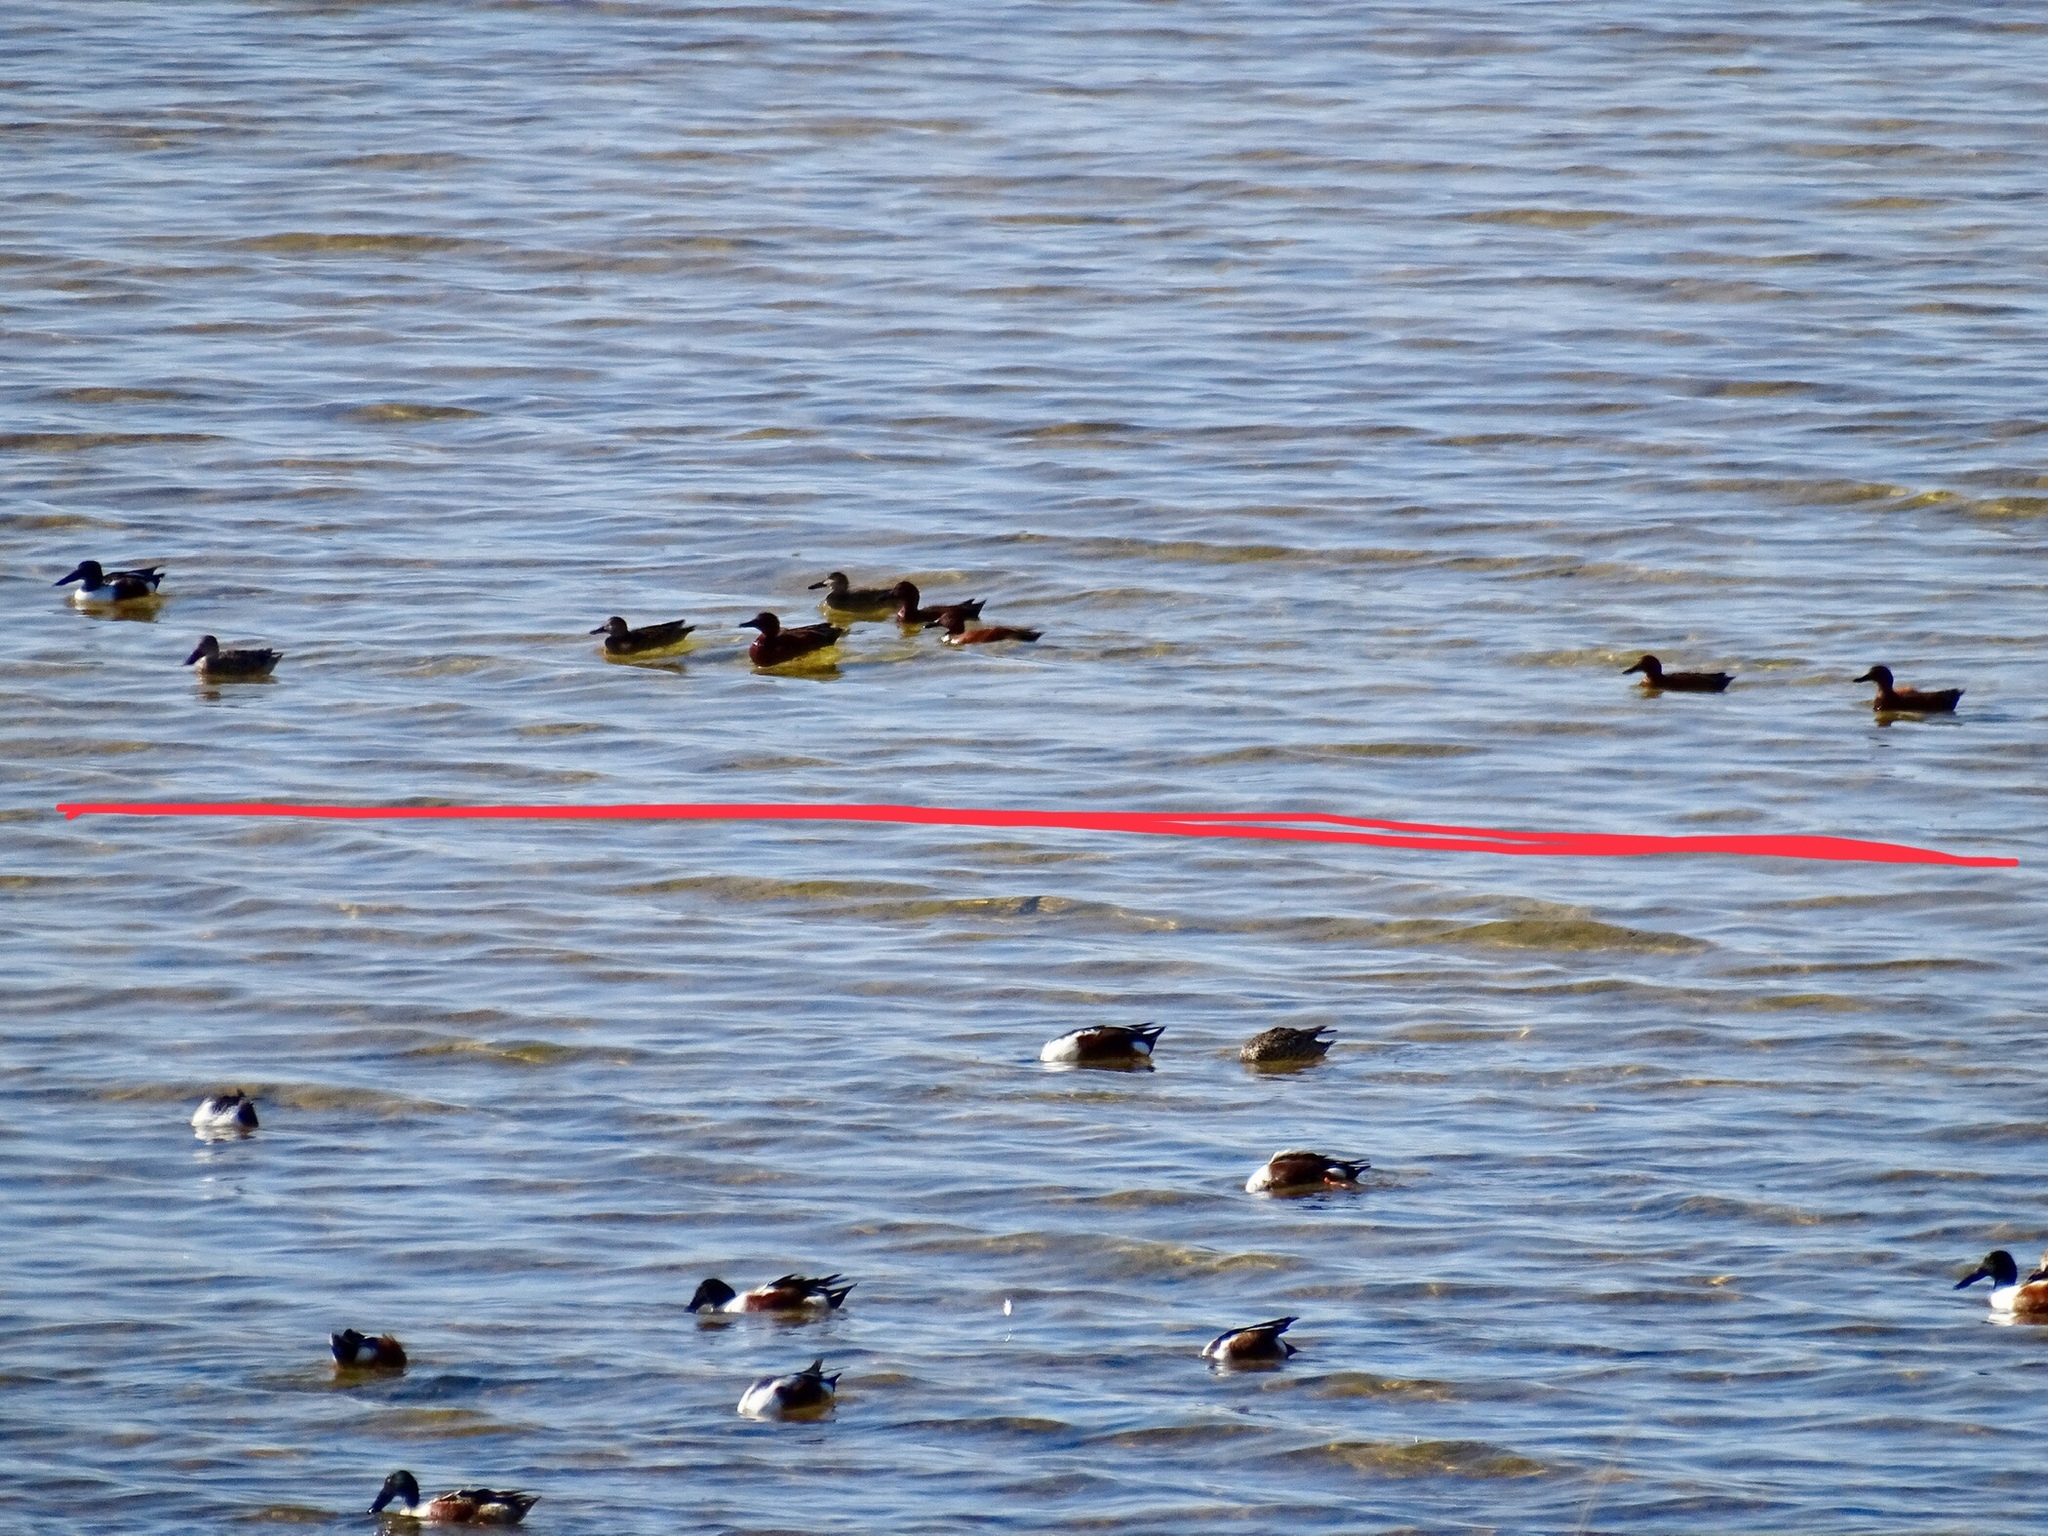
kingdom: Animalia
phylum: Chordata
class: Aves
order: Anseriformes
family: Anatidae
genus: Spatula
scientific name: Spatula clypeata
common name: Northern shoveler
